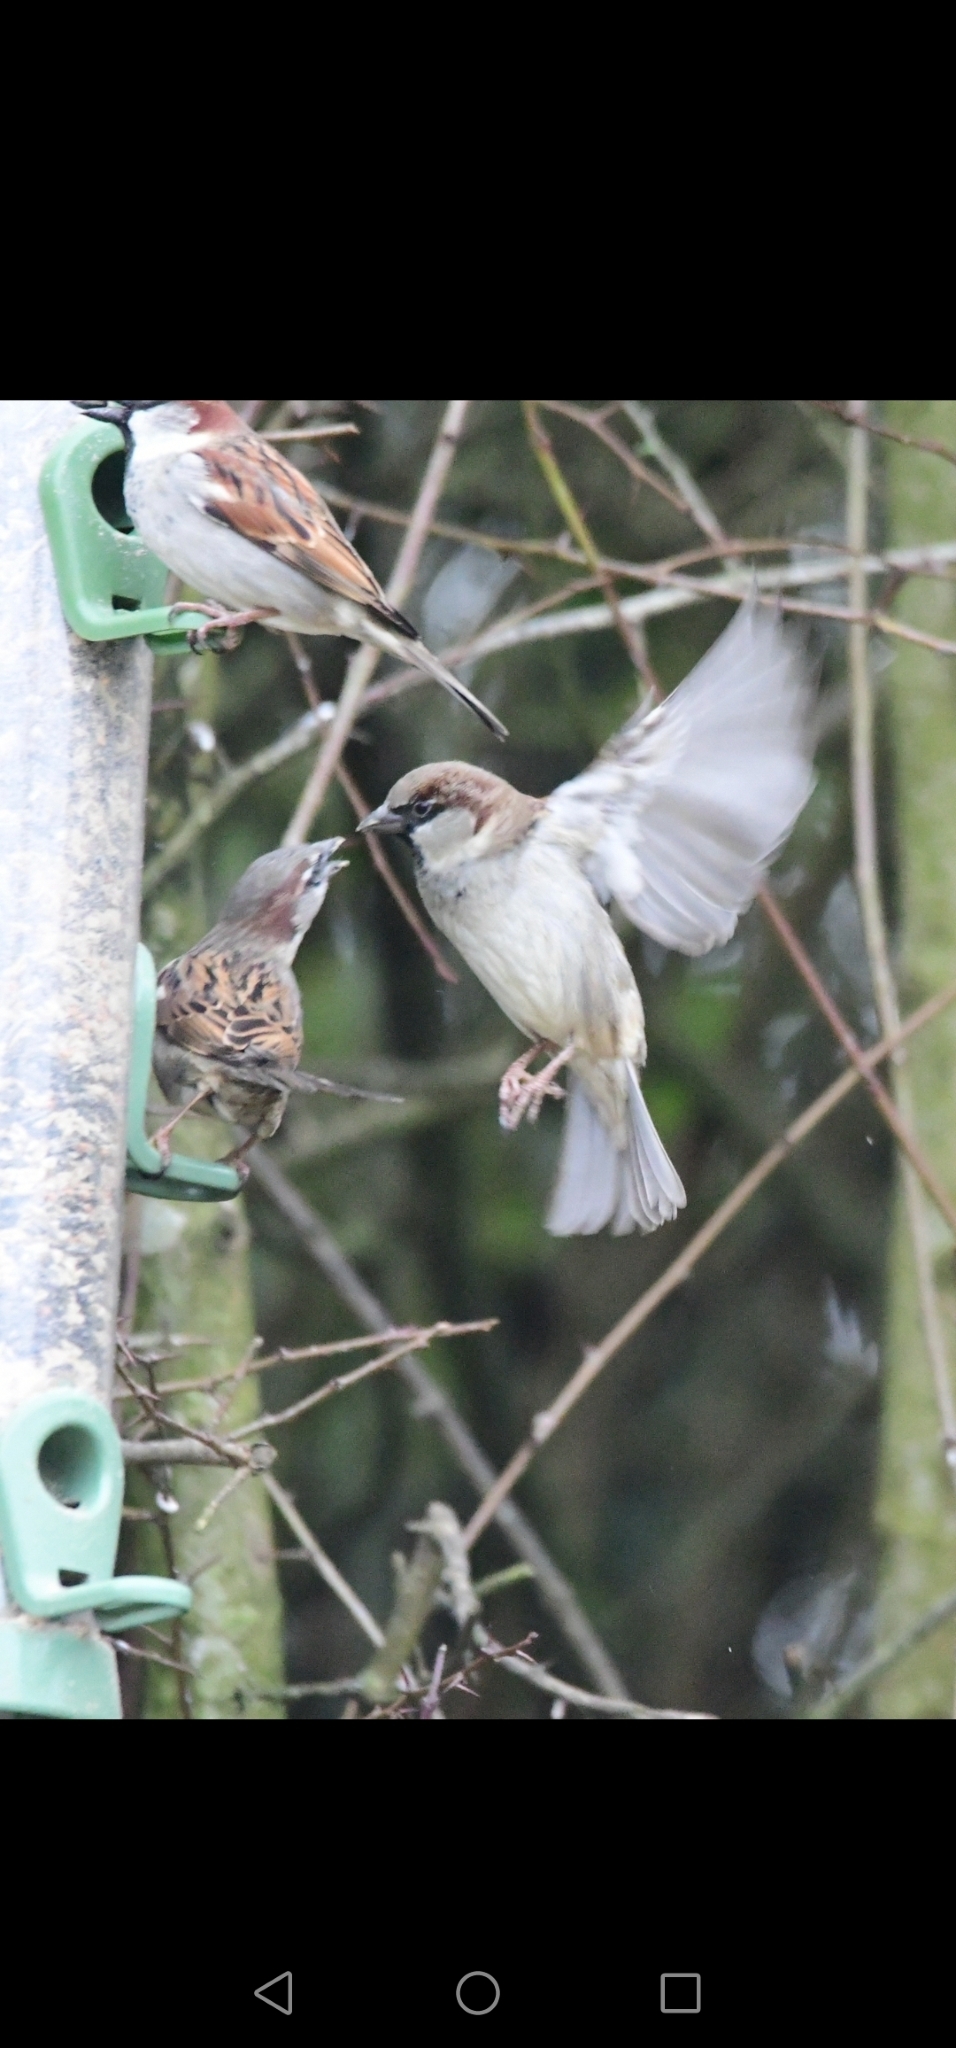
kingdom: Animalia
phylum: Chordata
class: Aves
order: Passeriformes
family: Passeridae
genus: Passer
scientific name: Passer domesticus
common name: House sparrow
